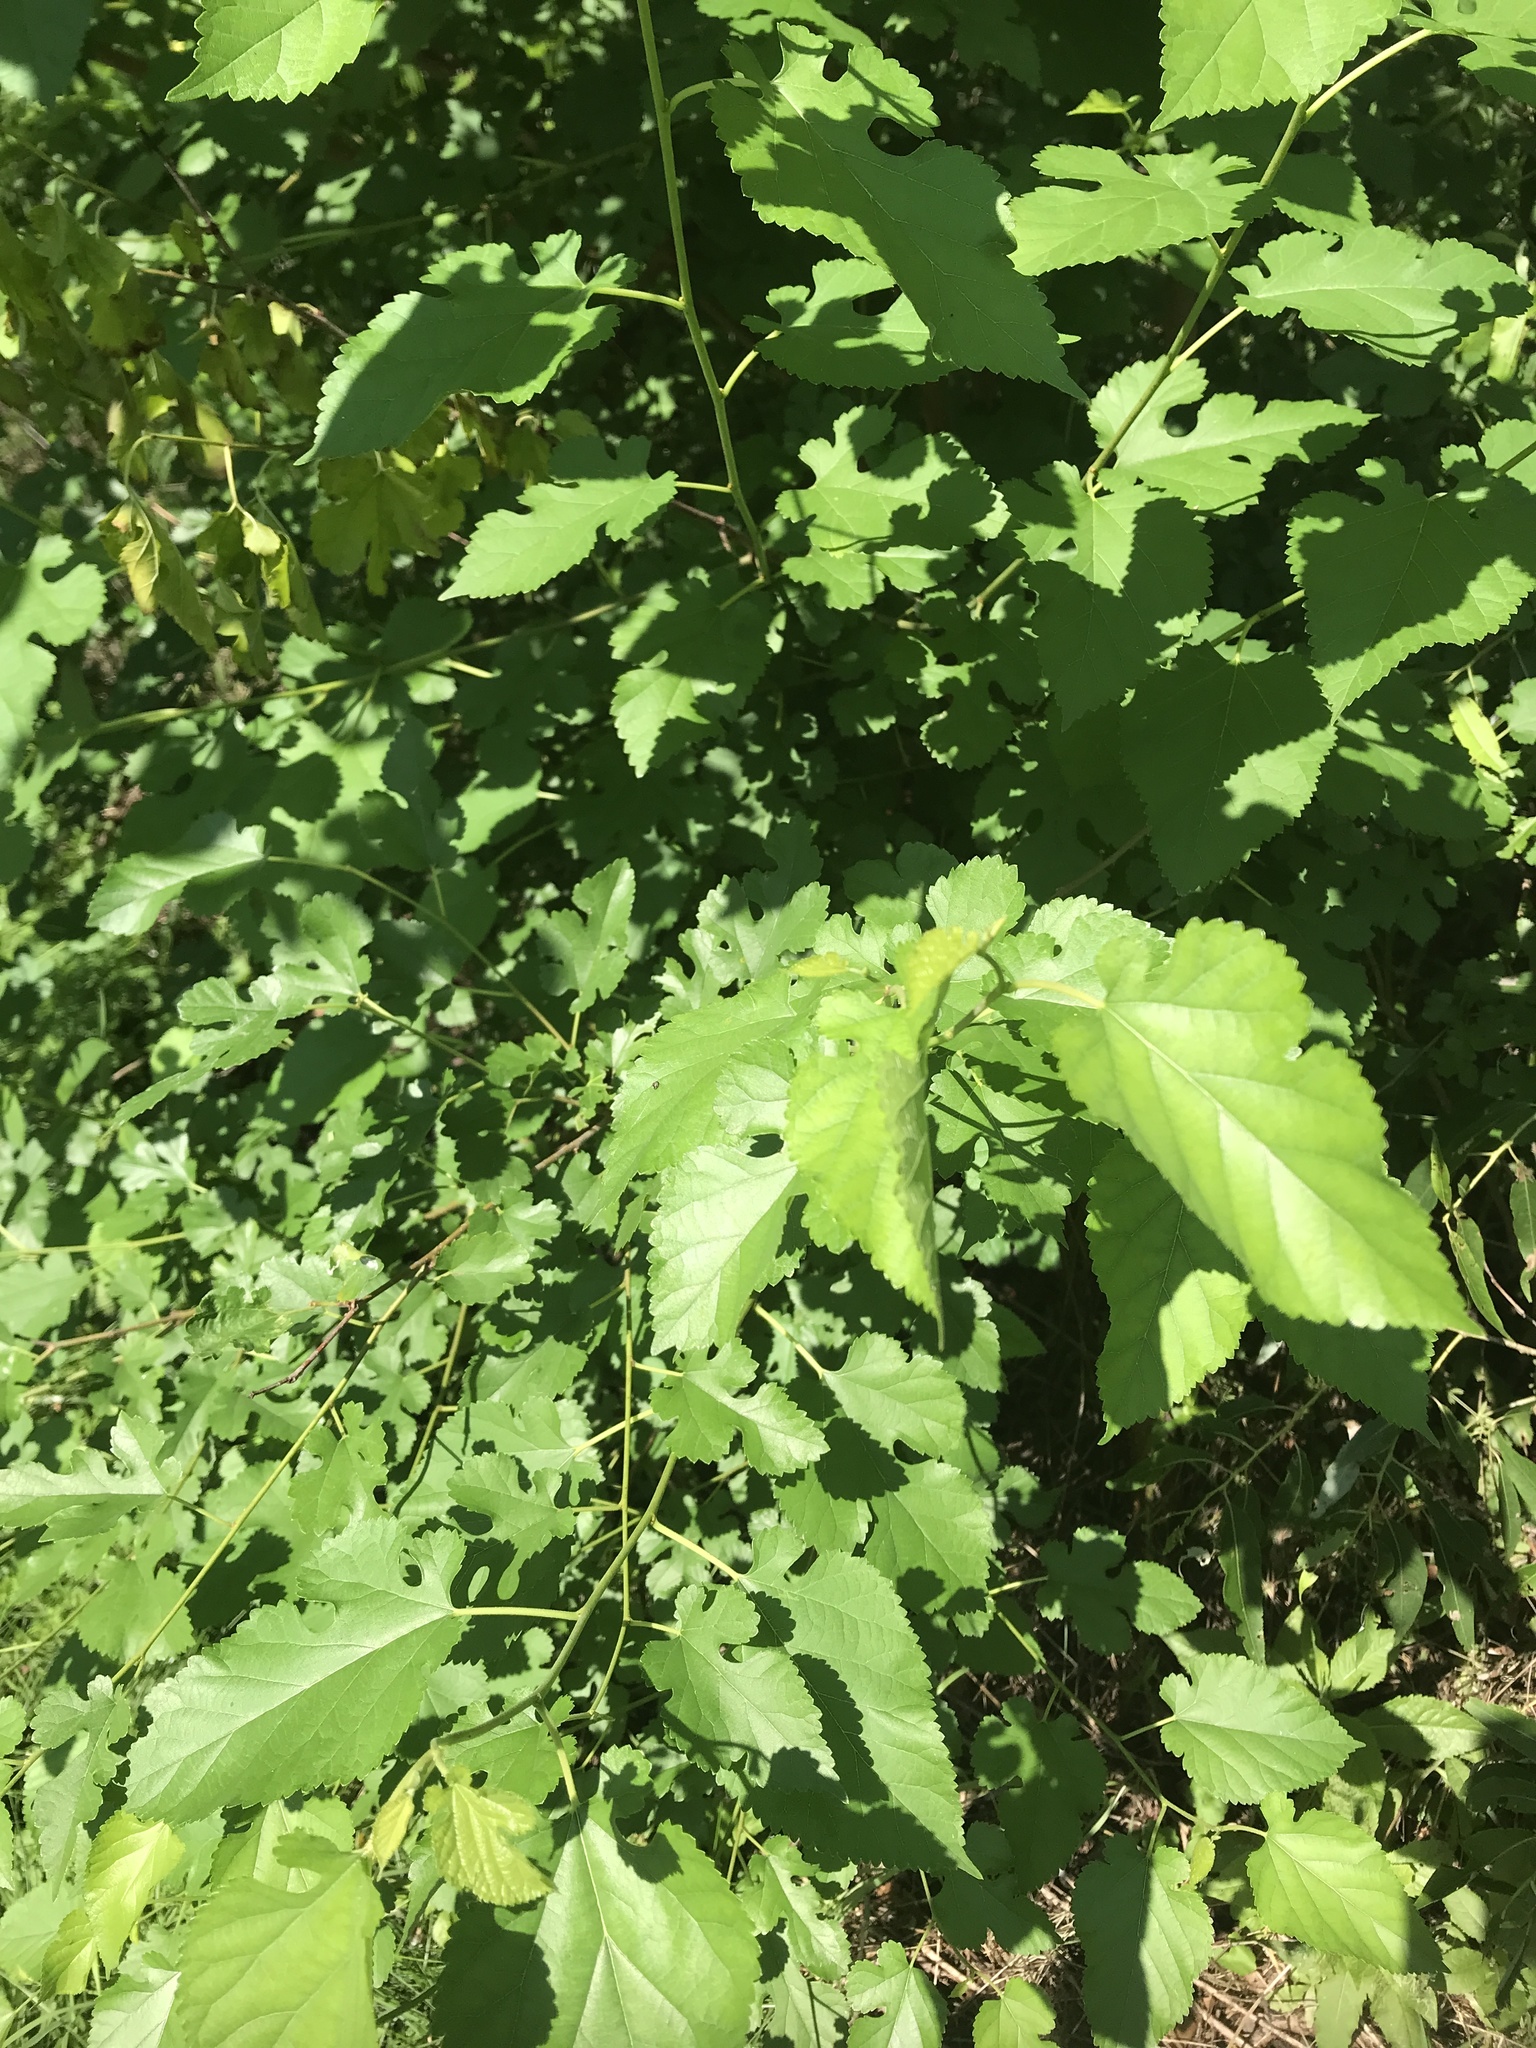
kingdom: Plantae
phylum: Tracheophyta
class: Magnoliopsida
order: Rosales
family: Moraceae
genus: Morus
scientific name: Morus alba
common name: White mulberry
